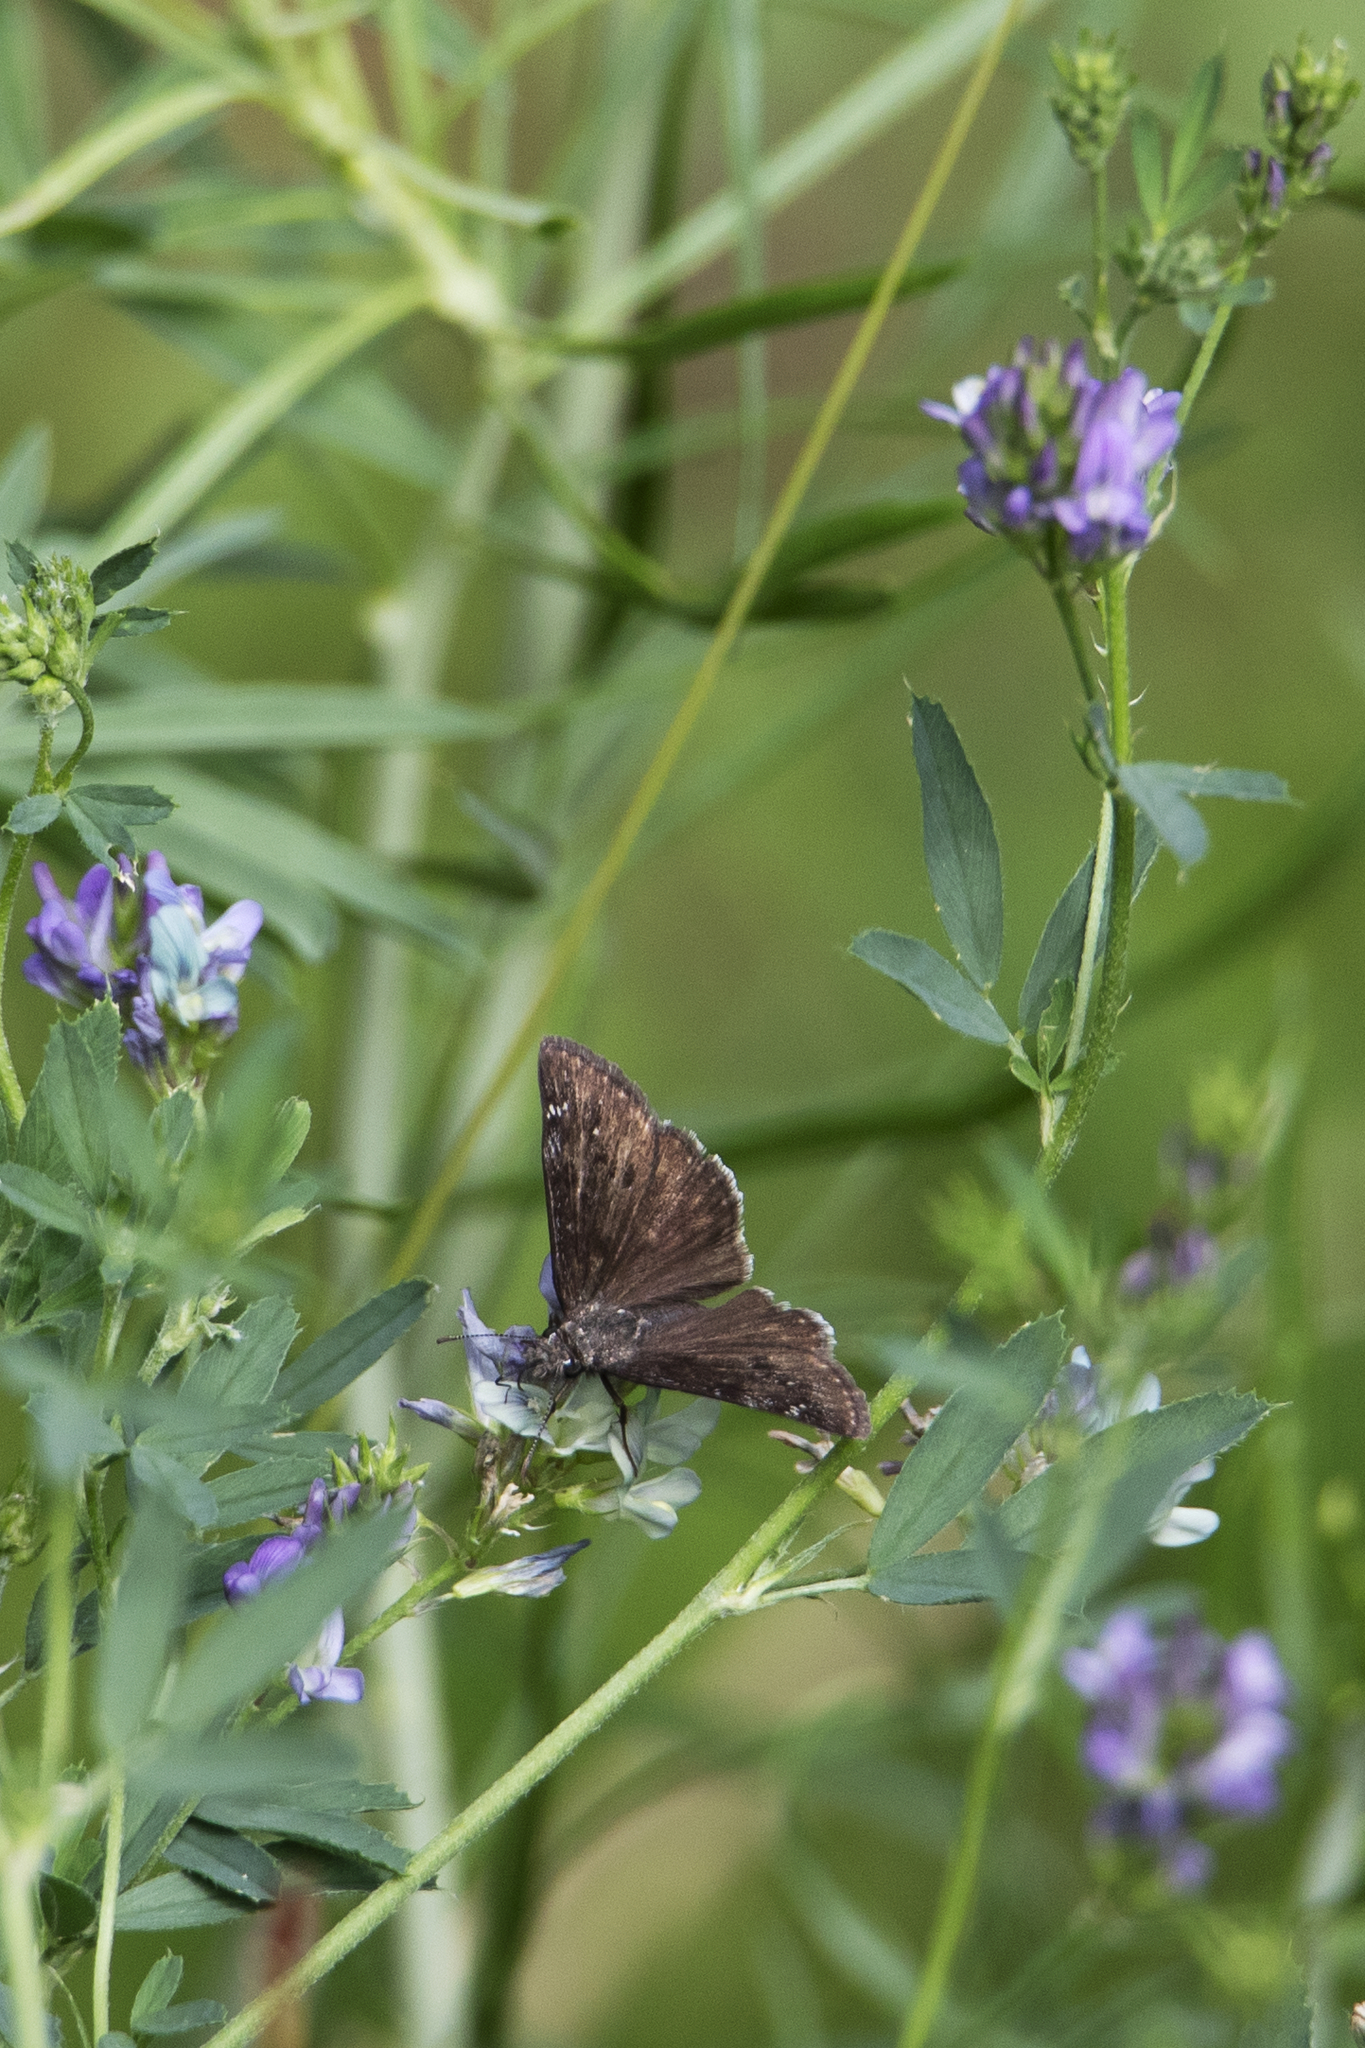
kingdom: Animalia
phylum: Arthropoda
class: Insecta
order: Lepidoptera
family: Hesperiidae
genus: Erynnis
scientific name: Erynnis afranius
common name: Afranius duskywing
